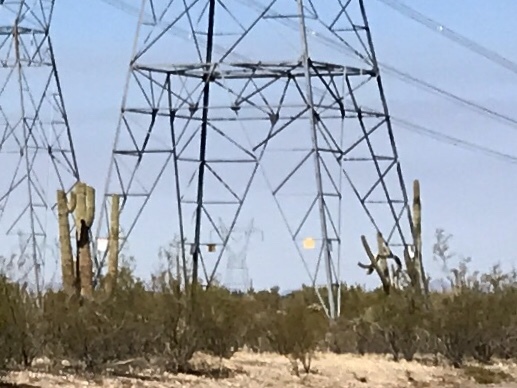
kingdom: Plantae
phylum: Tracheophyta
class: Magnoliopsida
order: Caryophyllales
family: Cactaceae
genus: Carnegiea
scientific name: Carnegiea gigantea
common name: Saguaro
